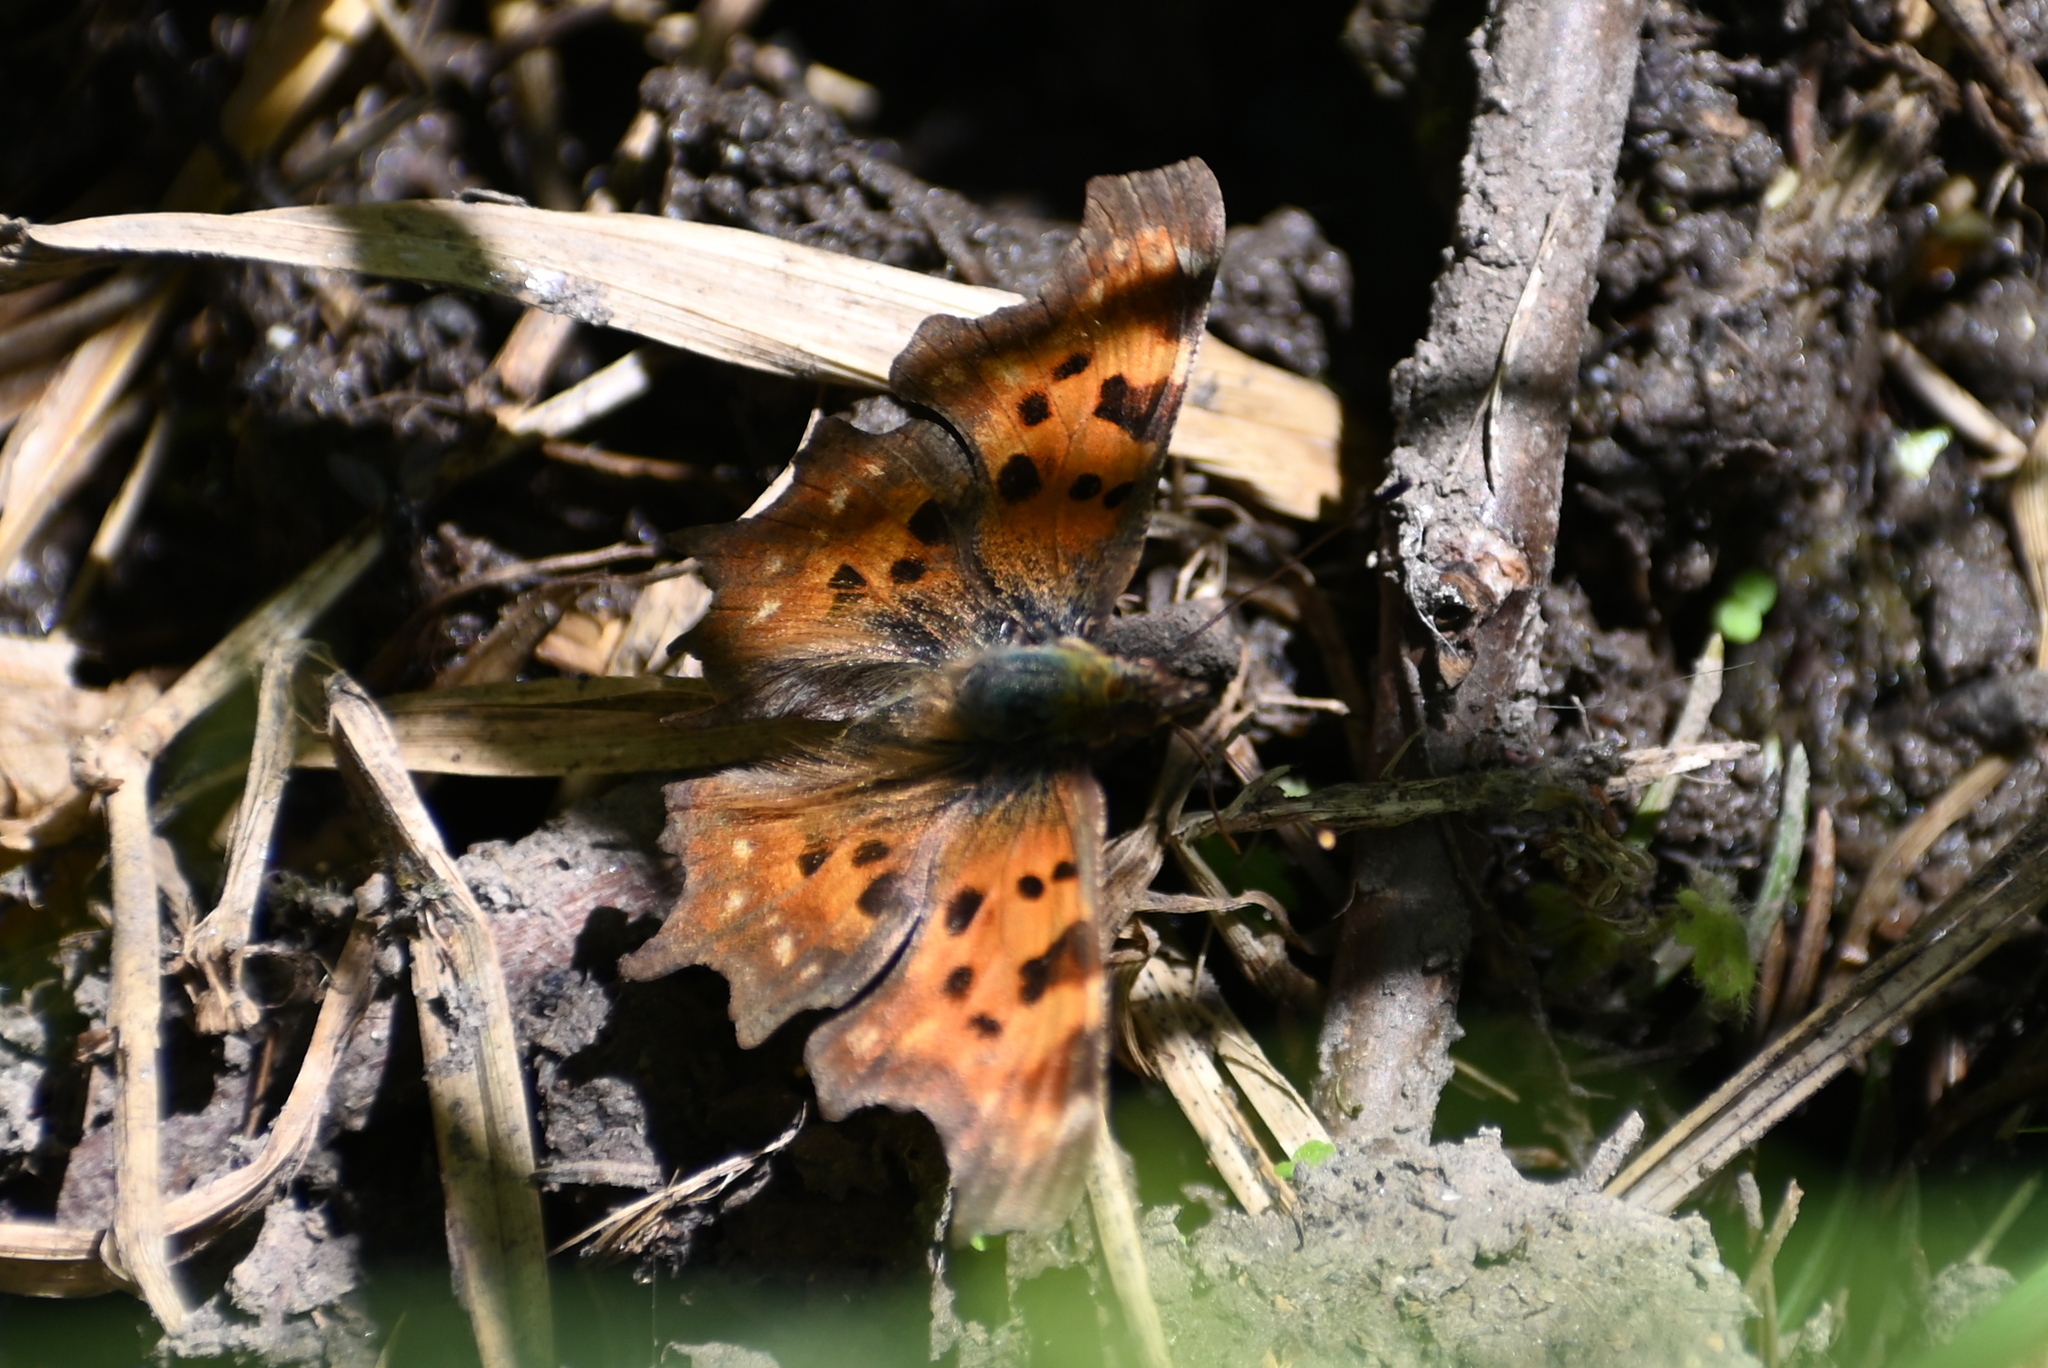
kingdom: Animalia
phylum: Arthropoda
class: Insecta
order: Lepidoptera
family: Nymphalidae
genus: Polygonia
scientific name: Polygonia c-album
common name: Comma
